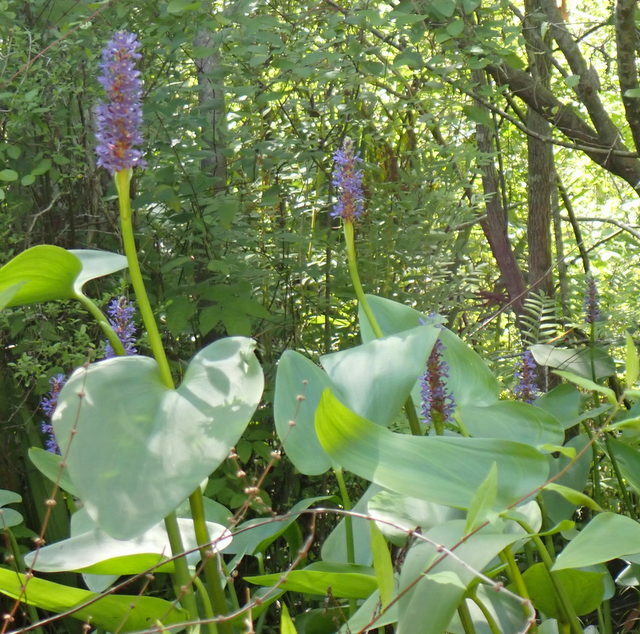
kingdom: Plantae
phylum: Tracheophyta
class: Liliopsida
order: Commelinales
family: Pontederiaceae
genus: Pontederia
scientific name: Pontederia cordata
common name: Pickerelweed
